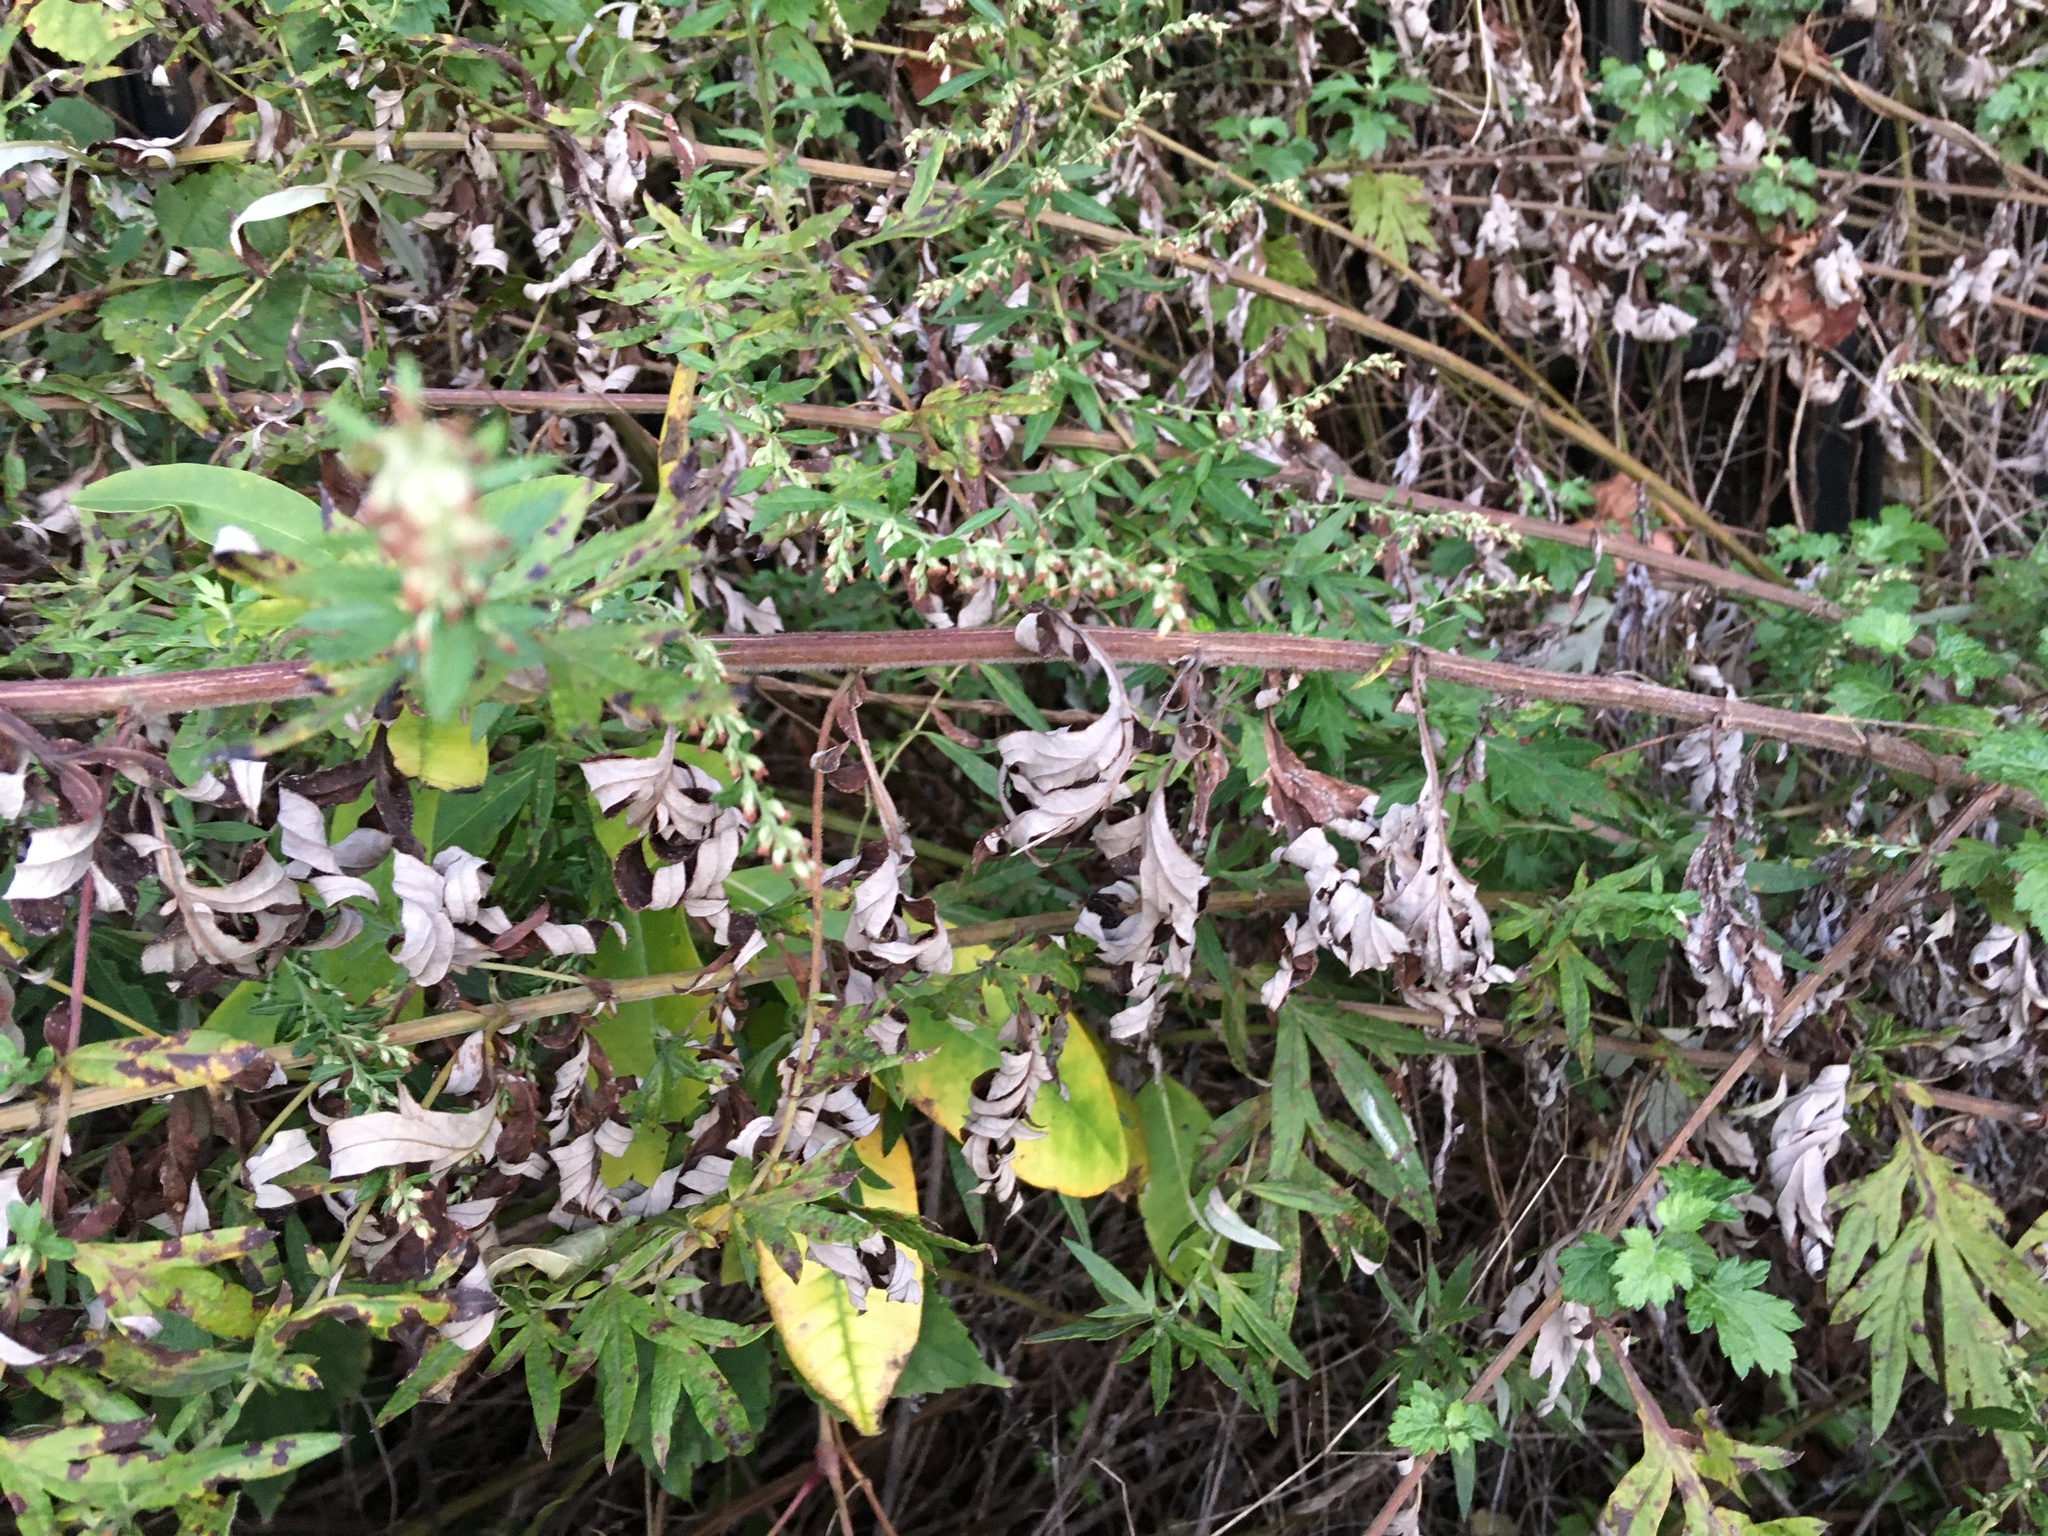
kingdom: Plantae
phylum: Tracheophyta
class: Magnoliopsida
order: Asterales
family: Asteraceae
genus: Artemisia
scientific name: Artemisia vulgaris
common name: Mugwort
